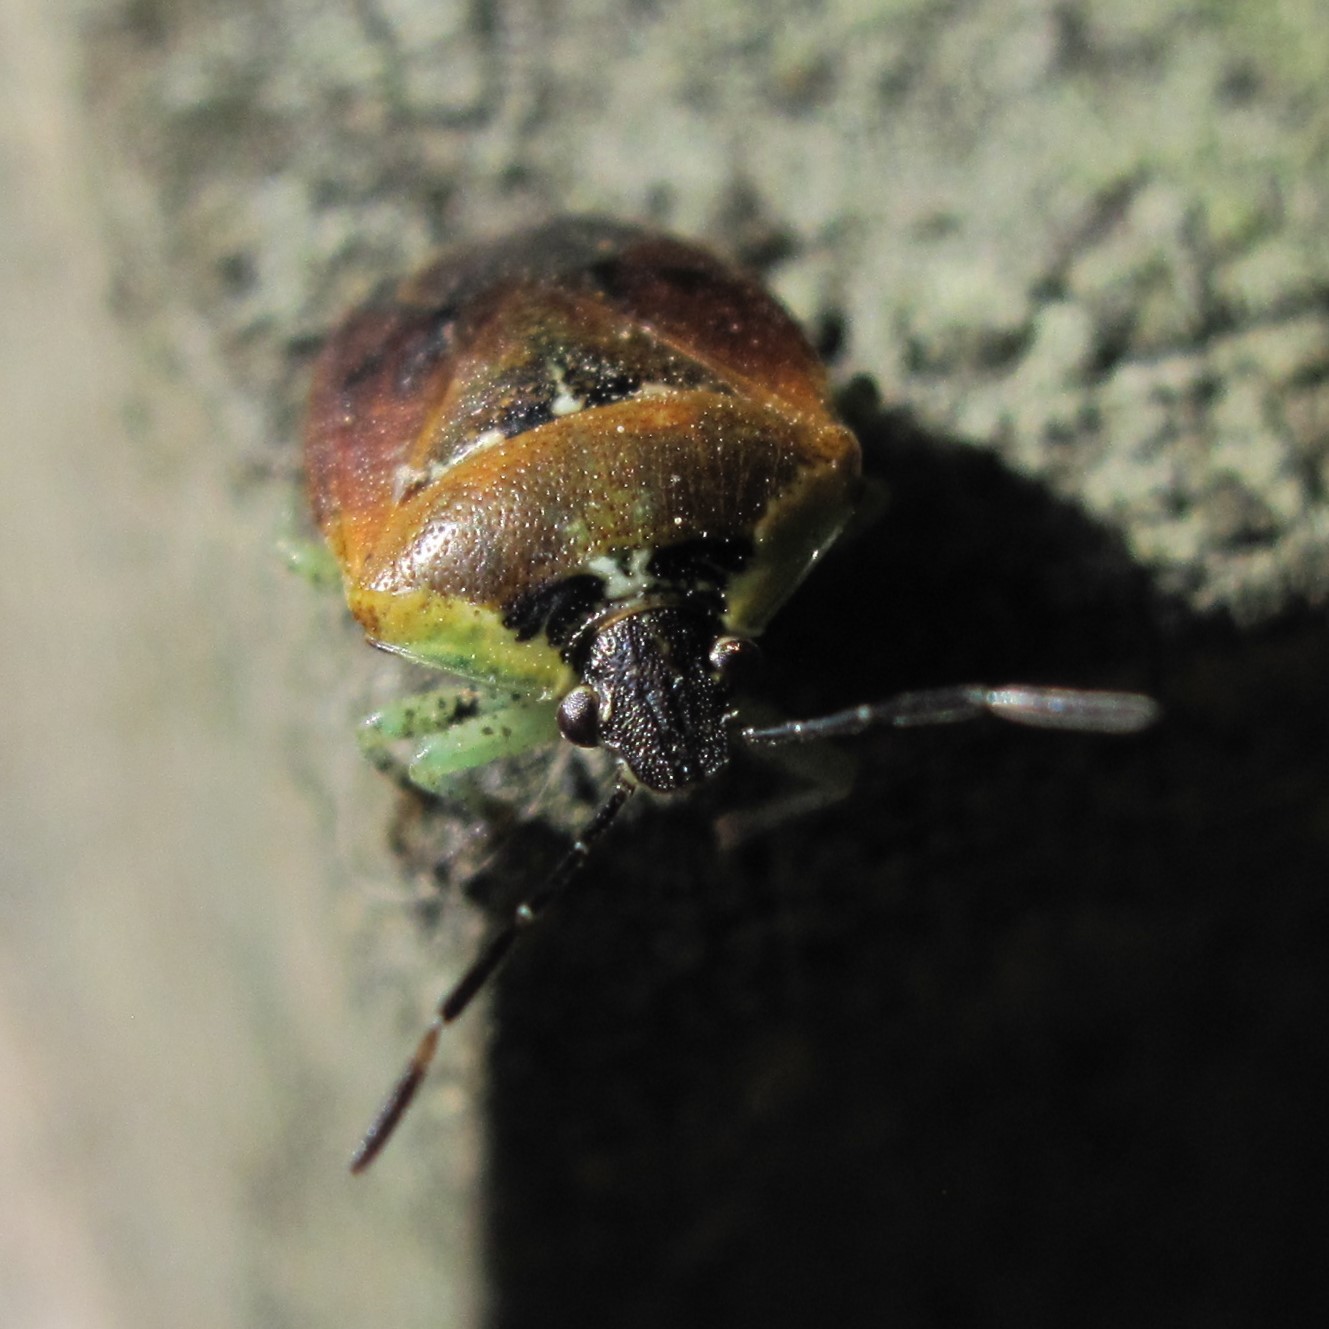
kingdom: Animalia
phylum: Arthropoda
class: Insecta
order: Hemiptera
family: Pentatomidae
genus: Monteithiella
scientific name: Monteithiella
